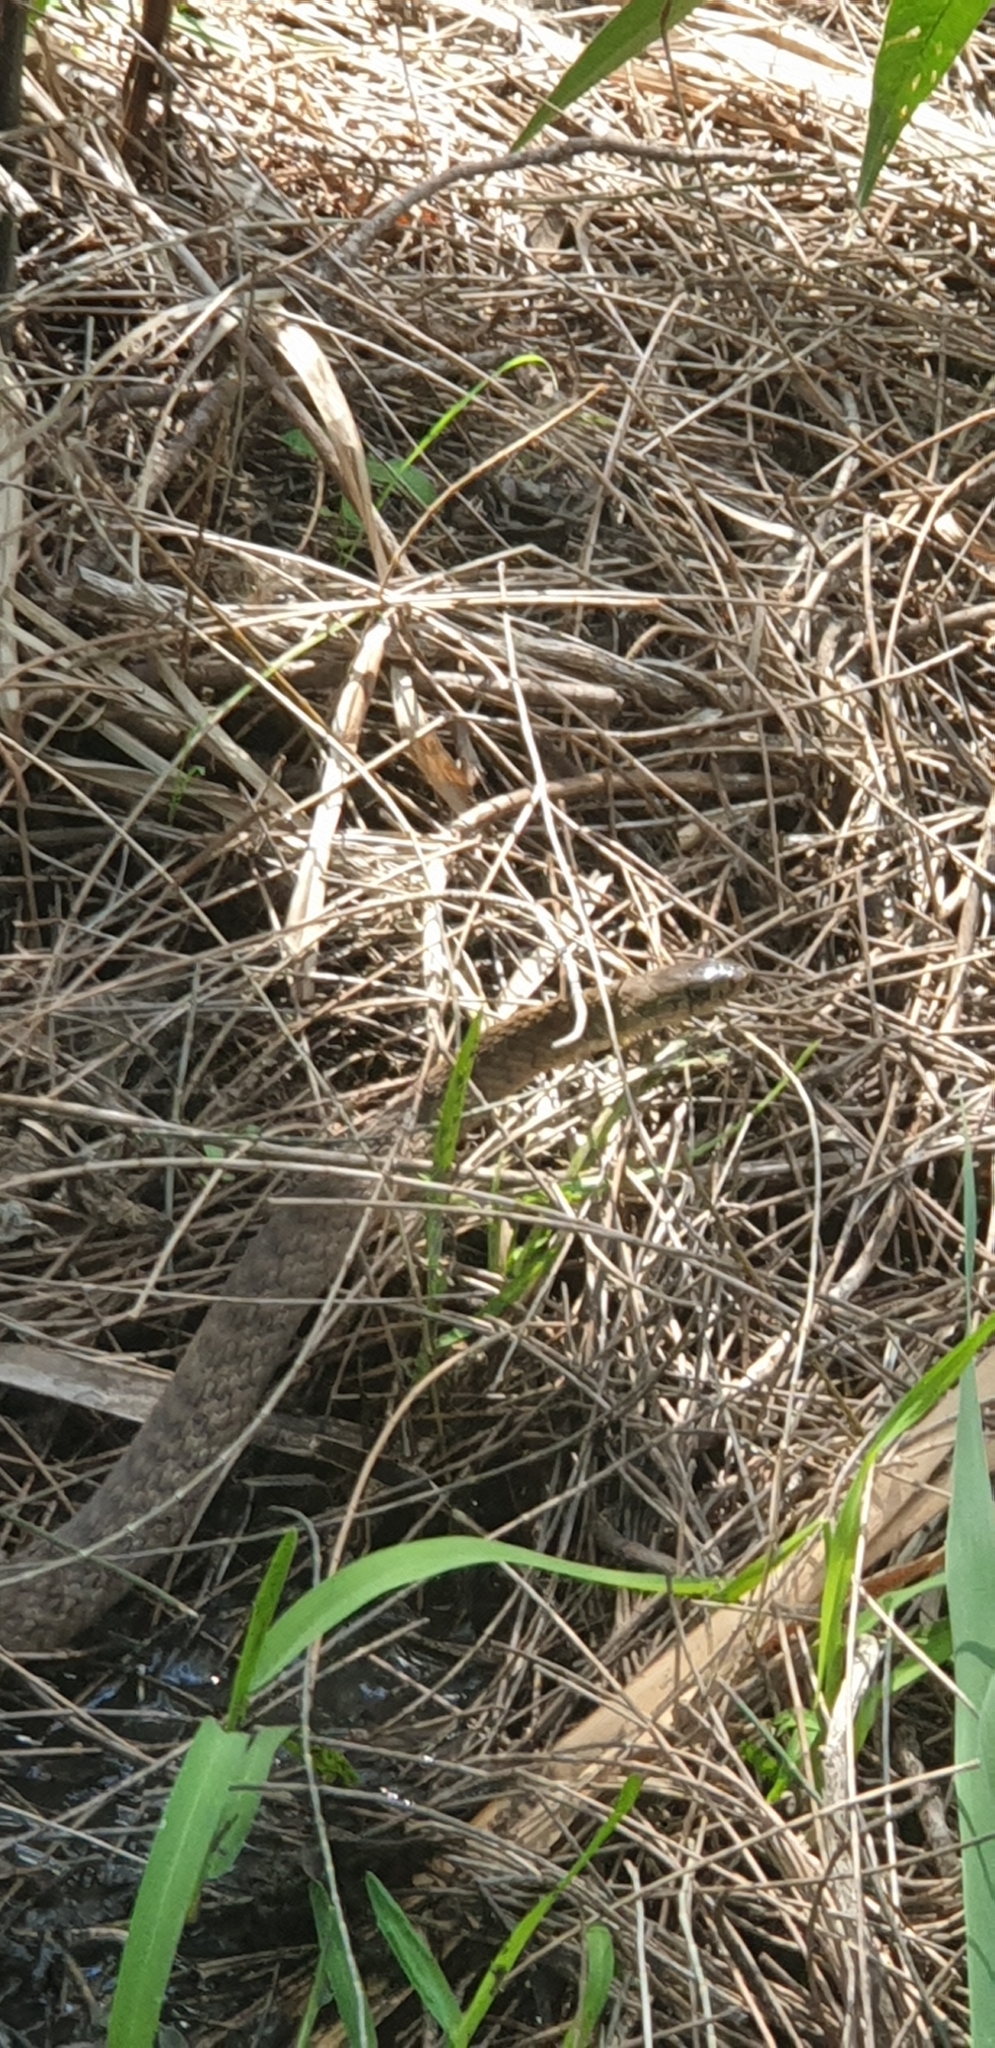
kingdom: Animalia
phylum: Chordata
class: Squamata
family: Colubridae
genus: Tropidonophis
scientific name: Tropidonophis mairii
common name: Common keelback
